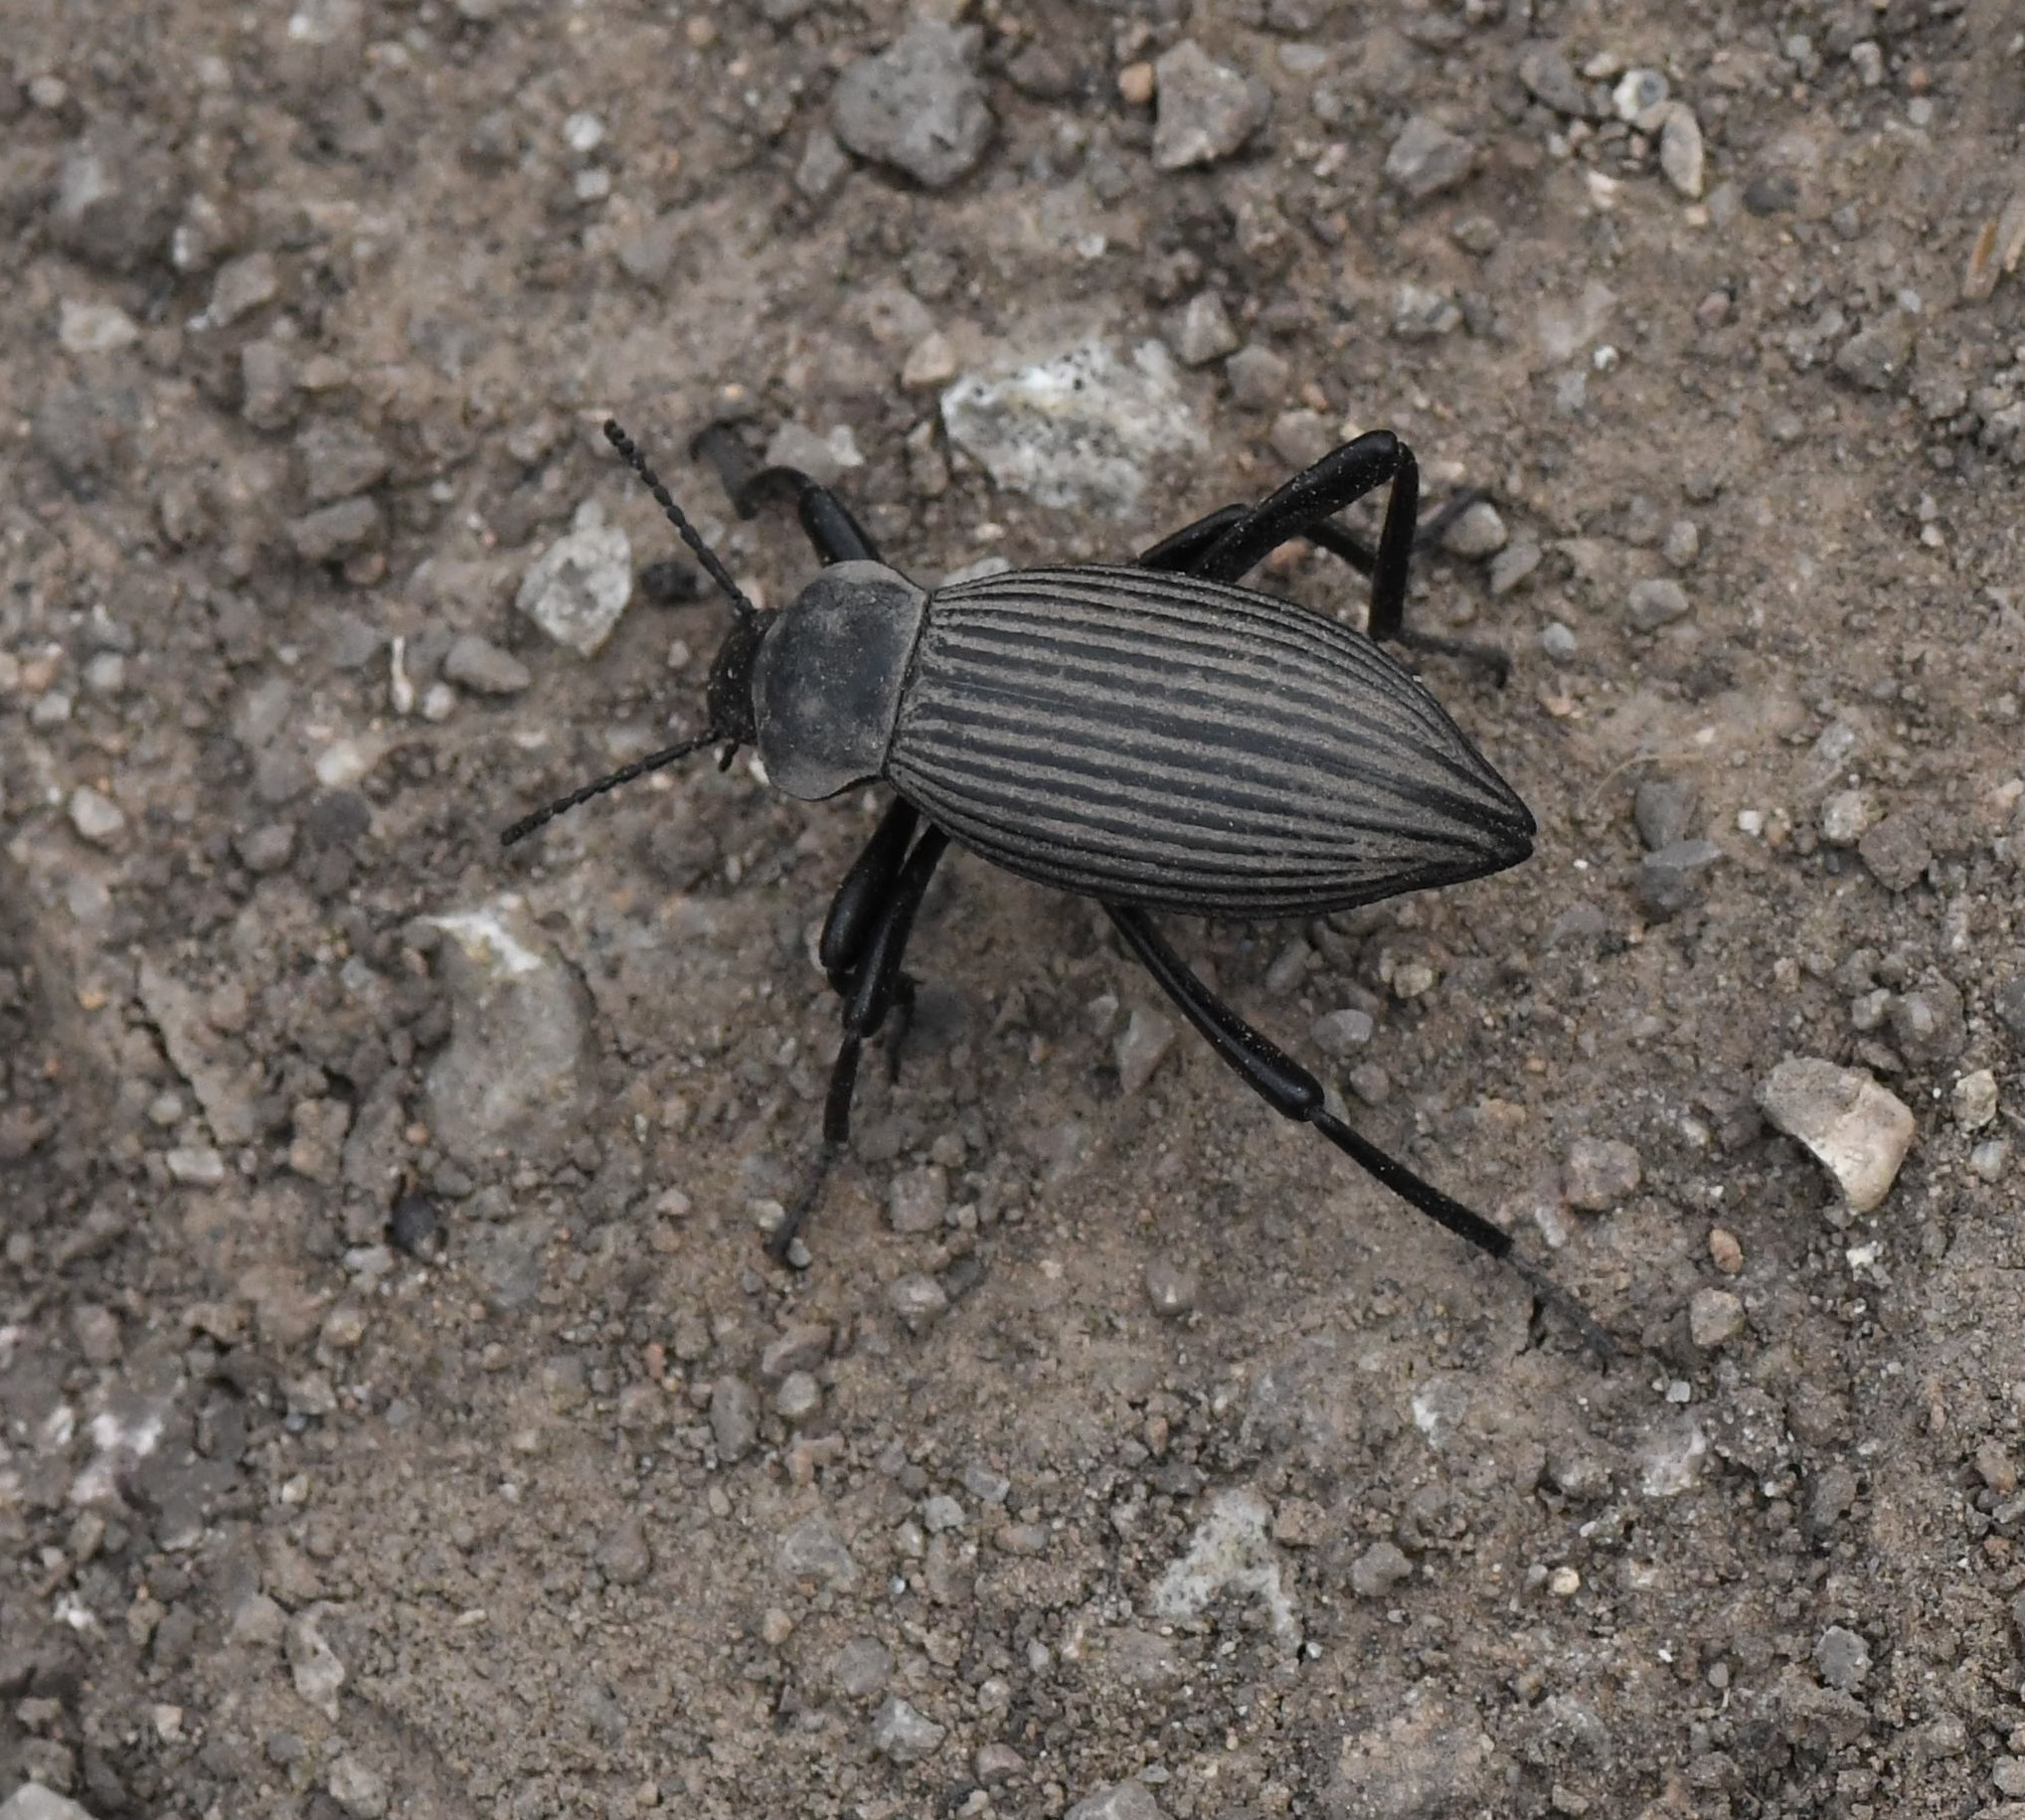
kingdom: Animalia
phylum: Arthropoda
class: Insecta
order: Coleoptera
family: Tenebrionidae
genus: Eleodes
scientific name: Eleodes hispilabris
